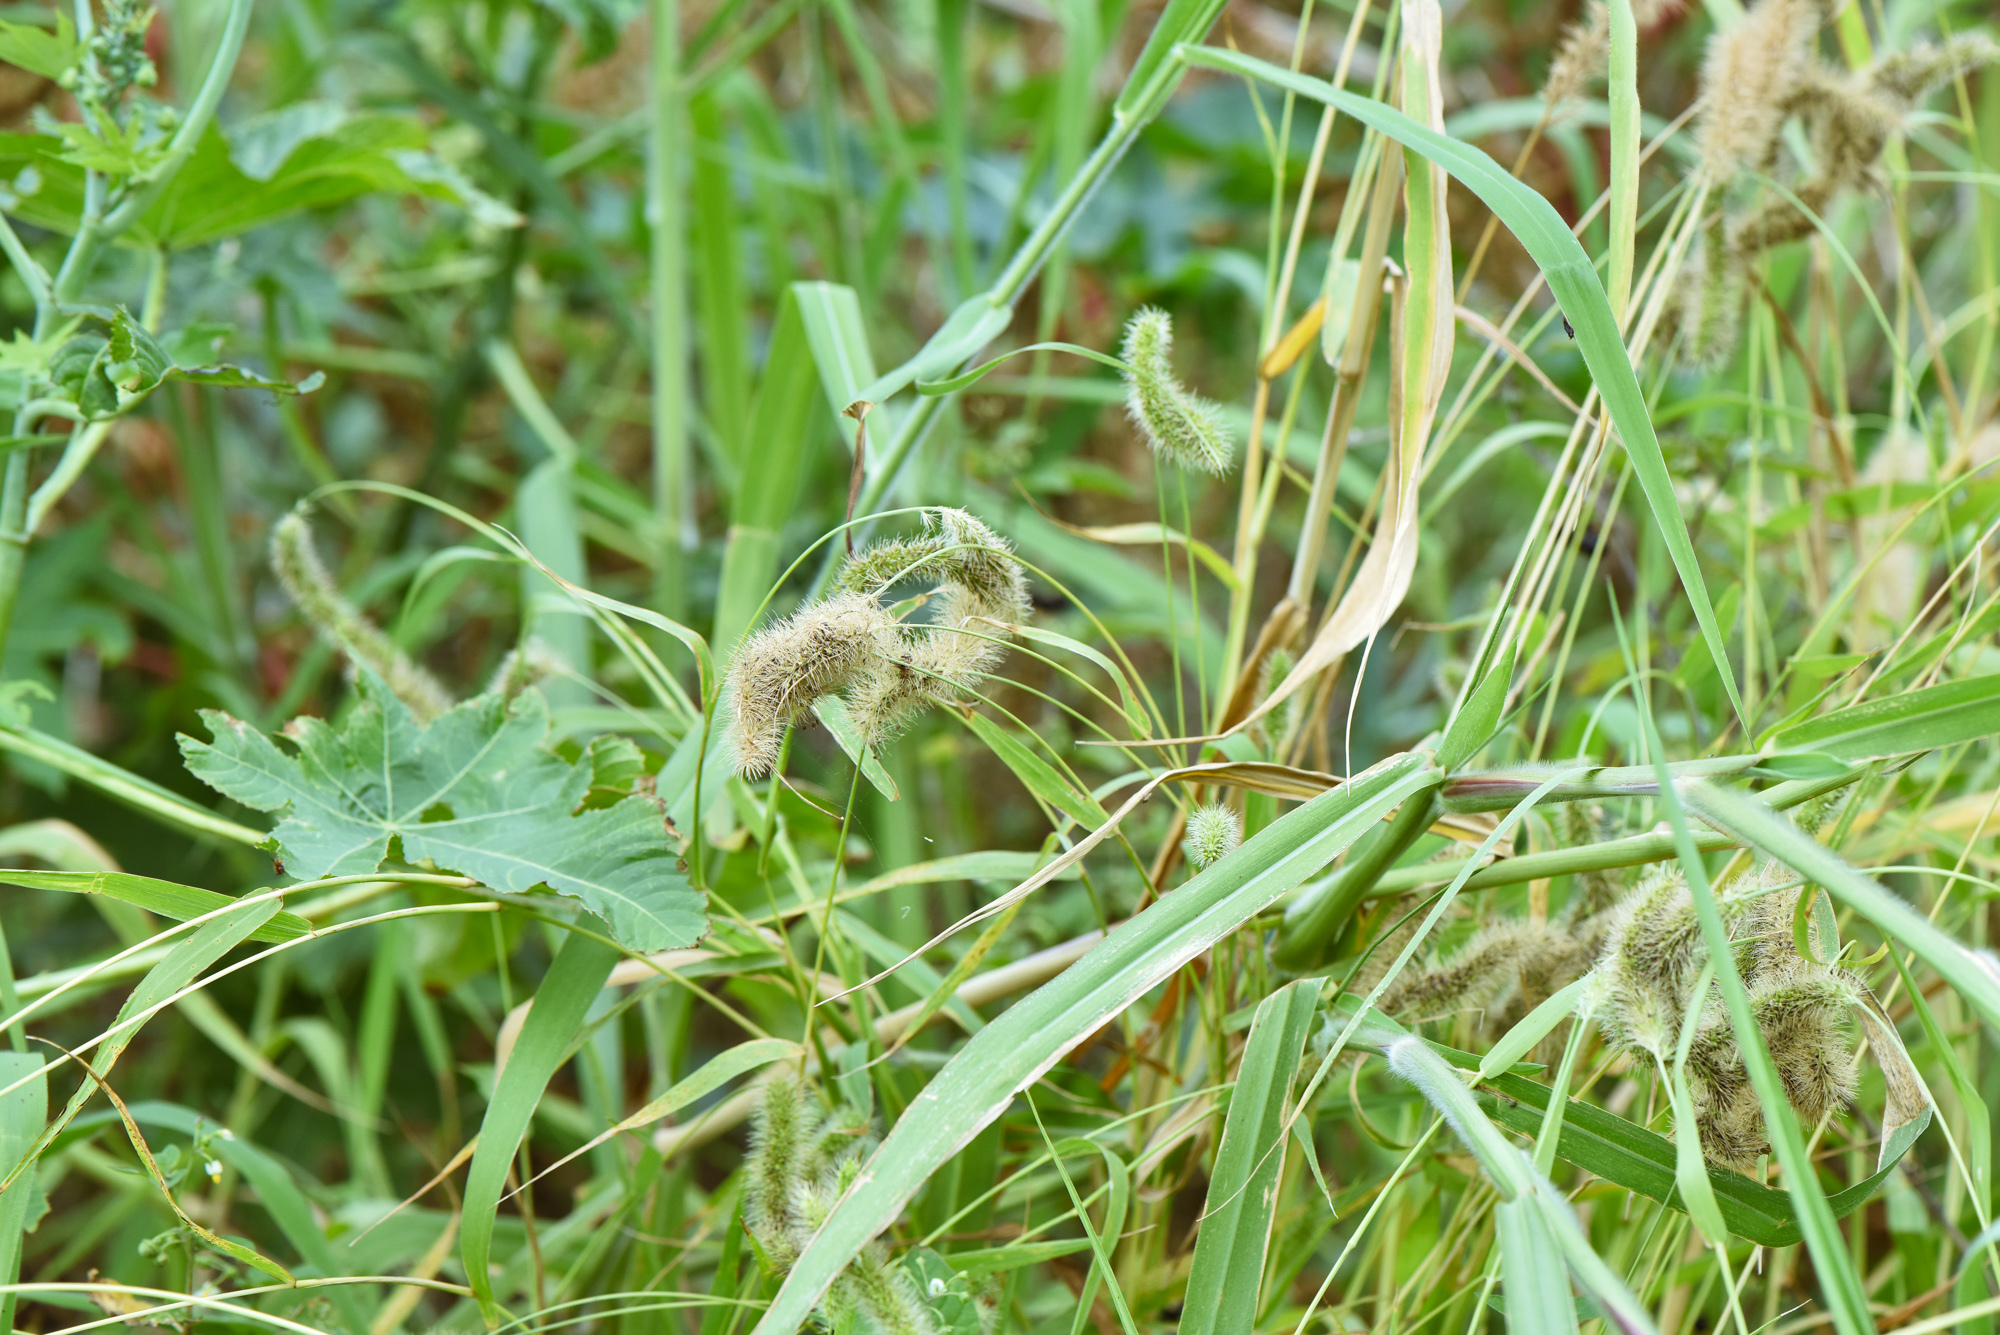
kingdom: Plantae
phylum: Tracheophyta
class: Liliopsida
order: Poales
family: Poaceae
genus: Setaria
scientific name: Setaria verticillata
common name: Hooked bristlegrass
